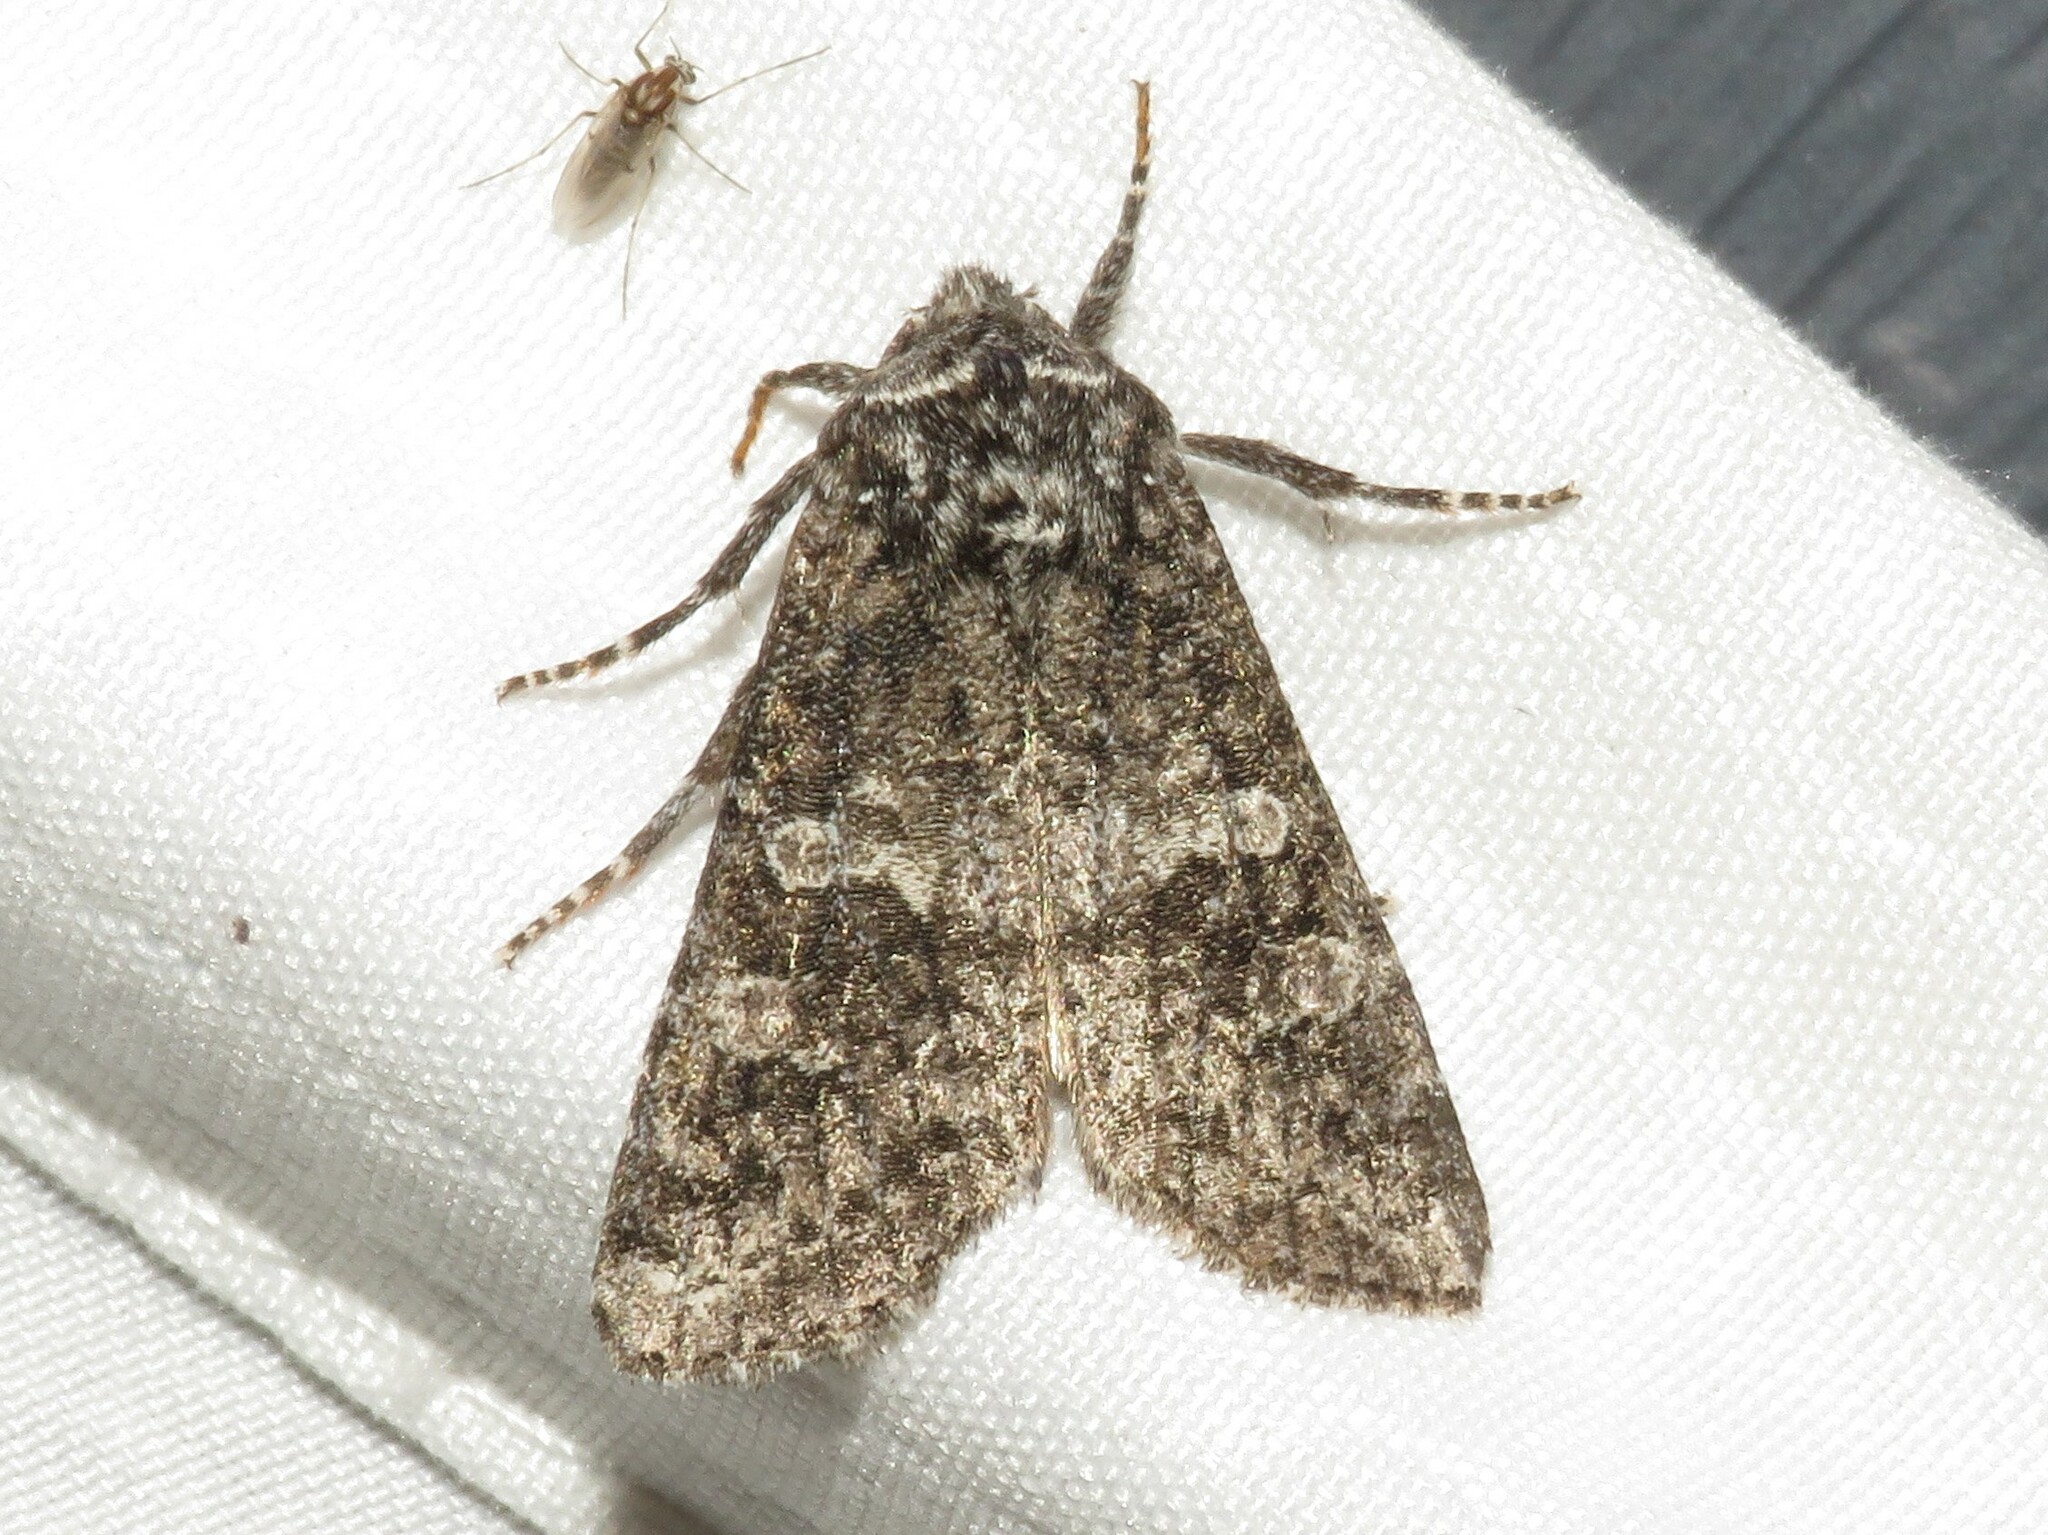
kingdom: Animalia
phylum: Arthropoda
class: Insecta
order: Lepidoptera
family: Noctuidae
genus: Egira
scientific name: Egira dolosa
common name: Lined black aspen cat.
